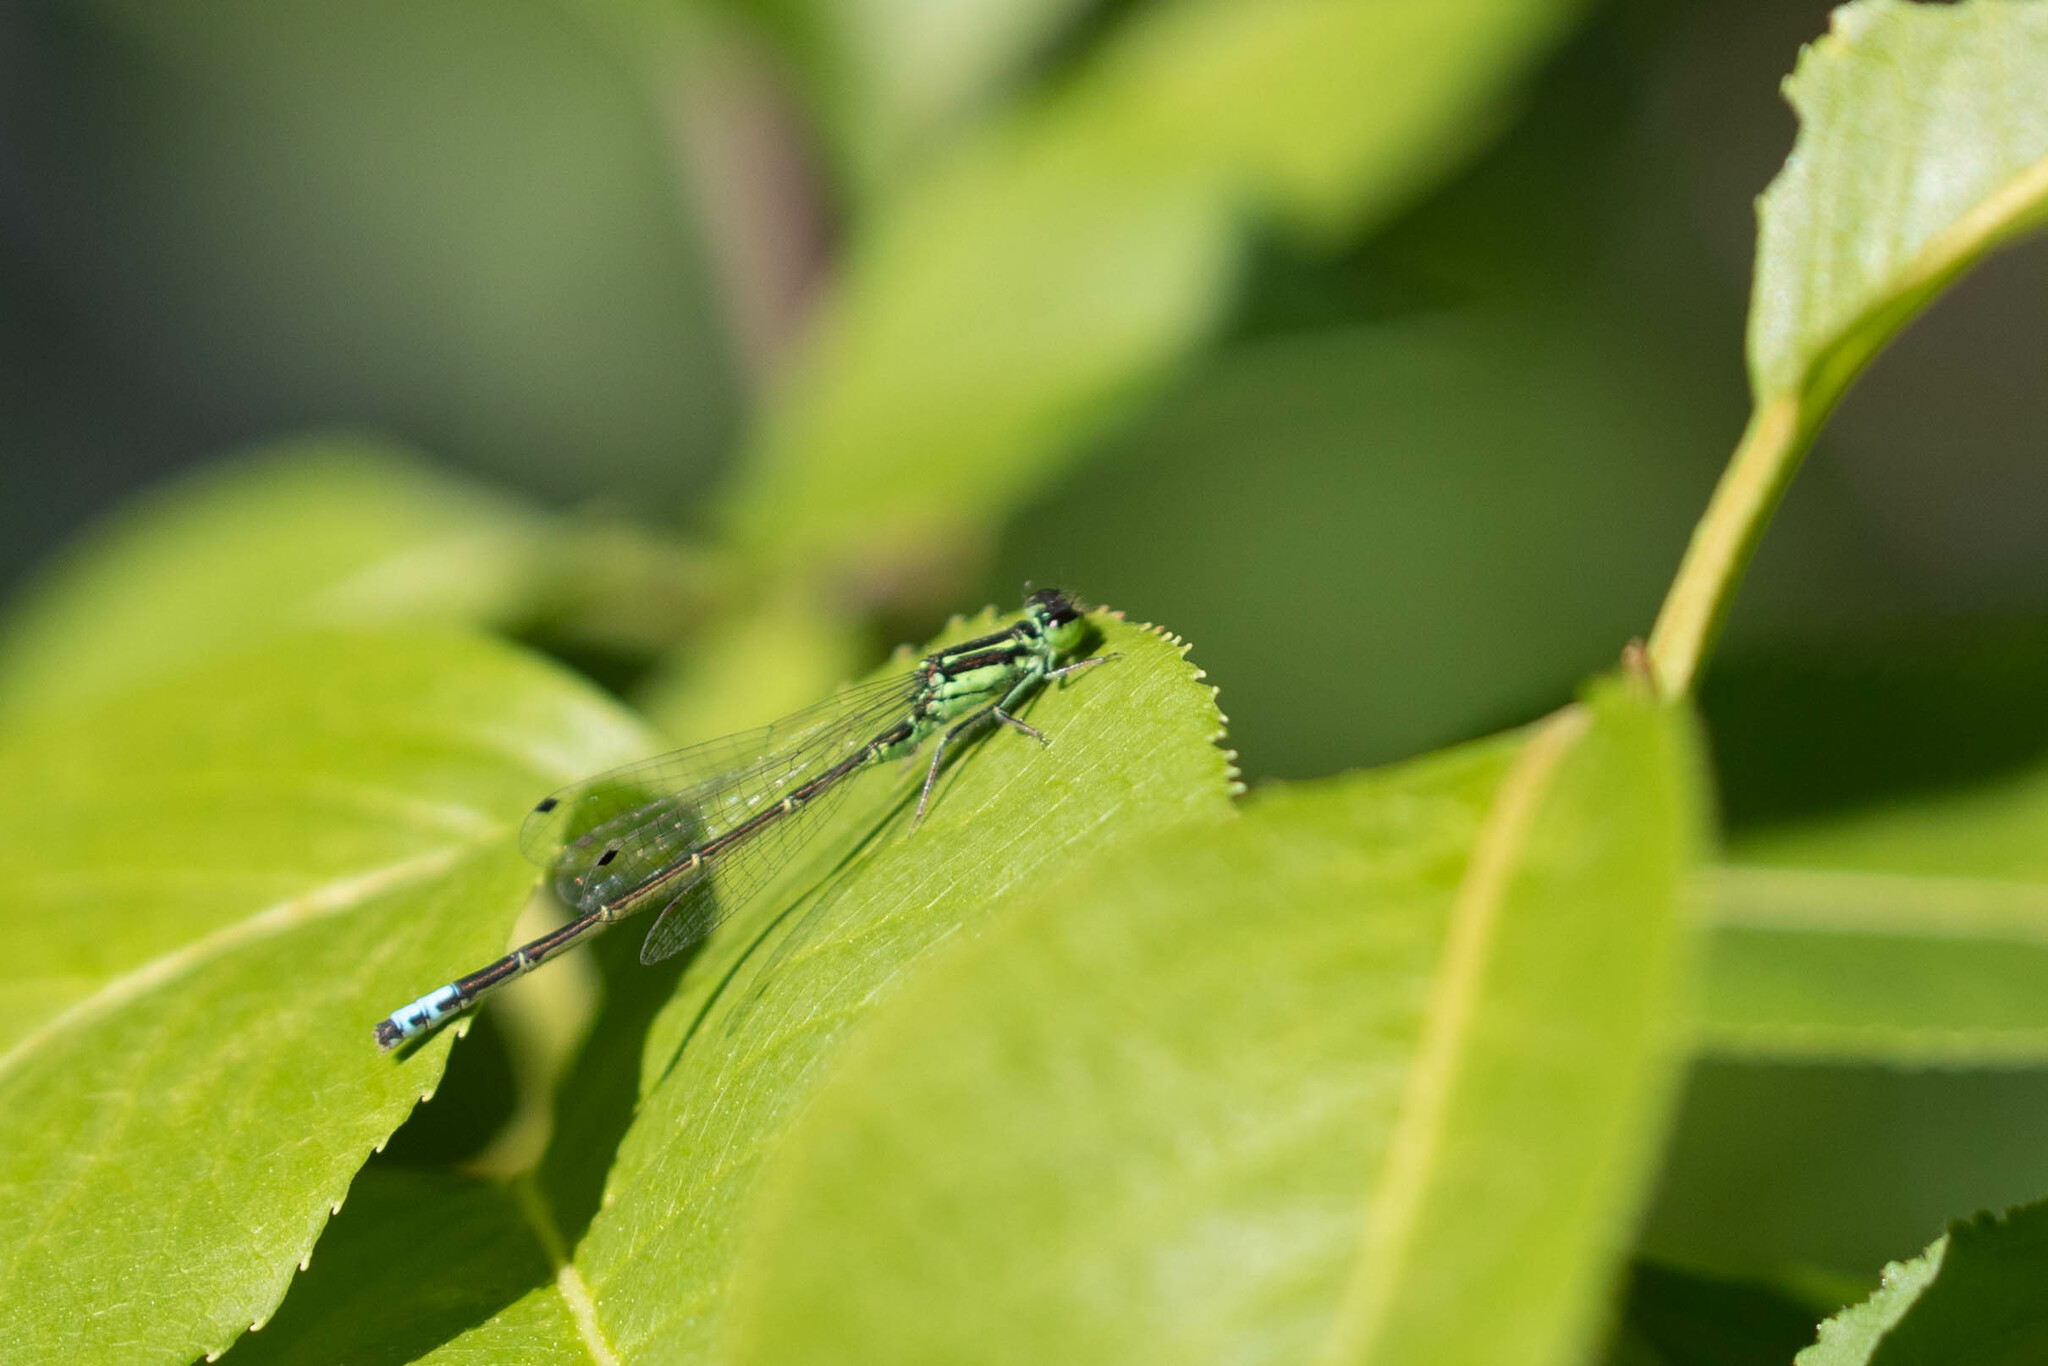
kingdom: Animalia
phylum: Arthropoda
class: Insecta
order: Odonata
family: Coenagrionidae
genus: Ischnura
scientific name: Ischnura verticalis
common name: Eastern forktail
